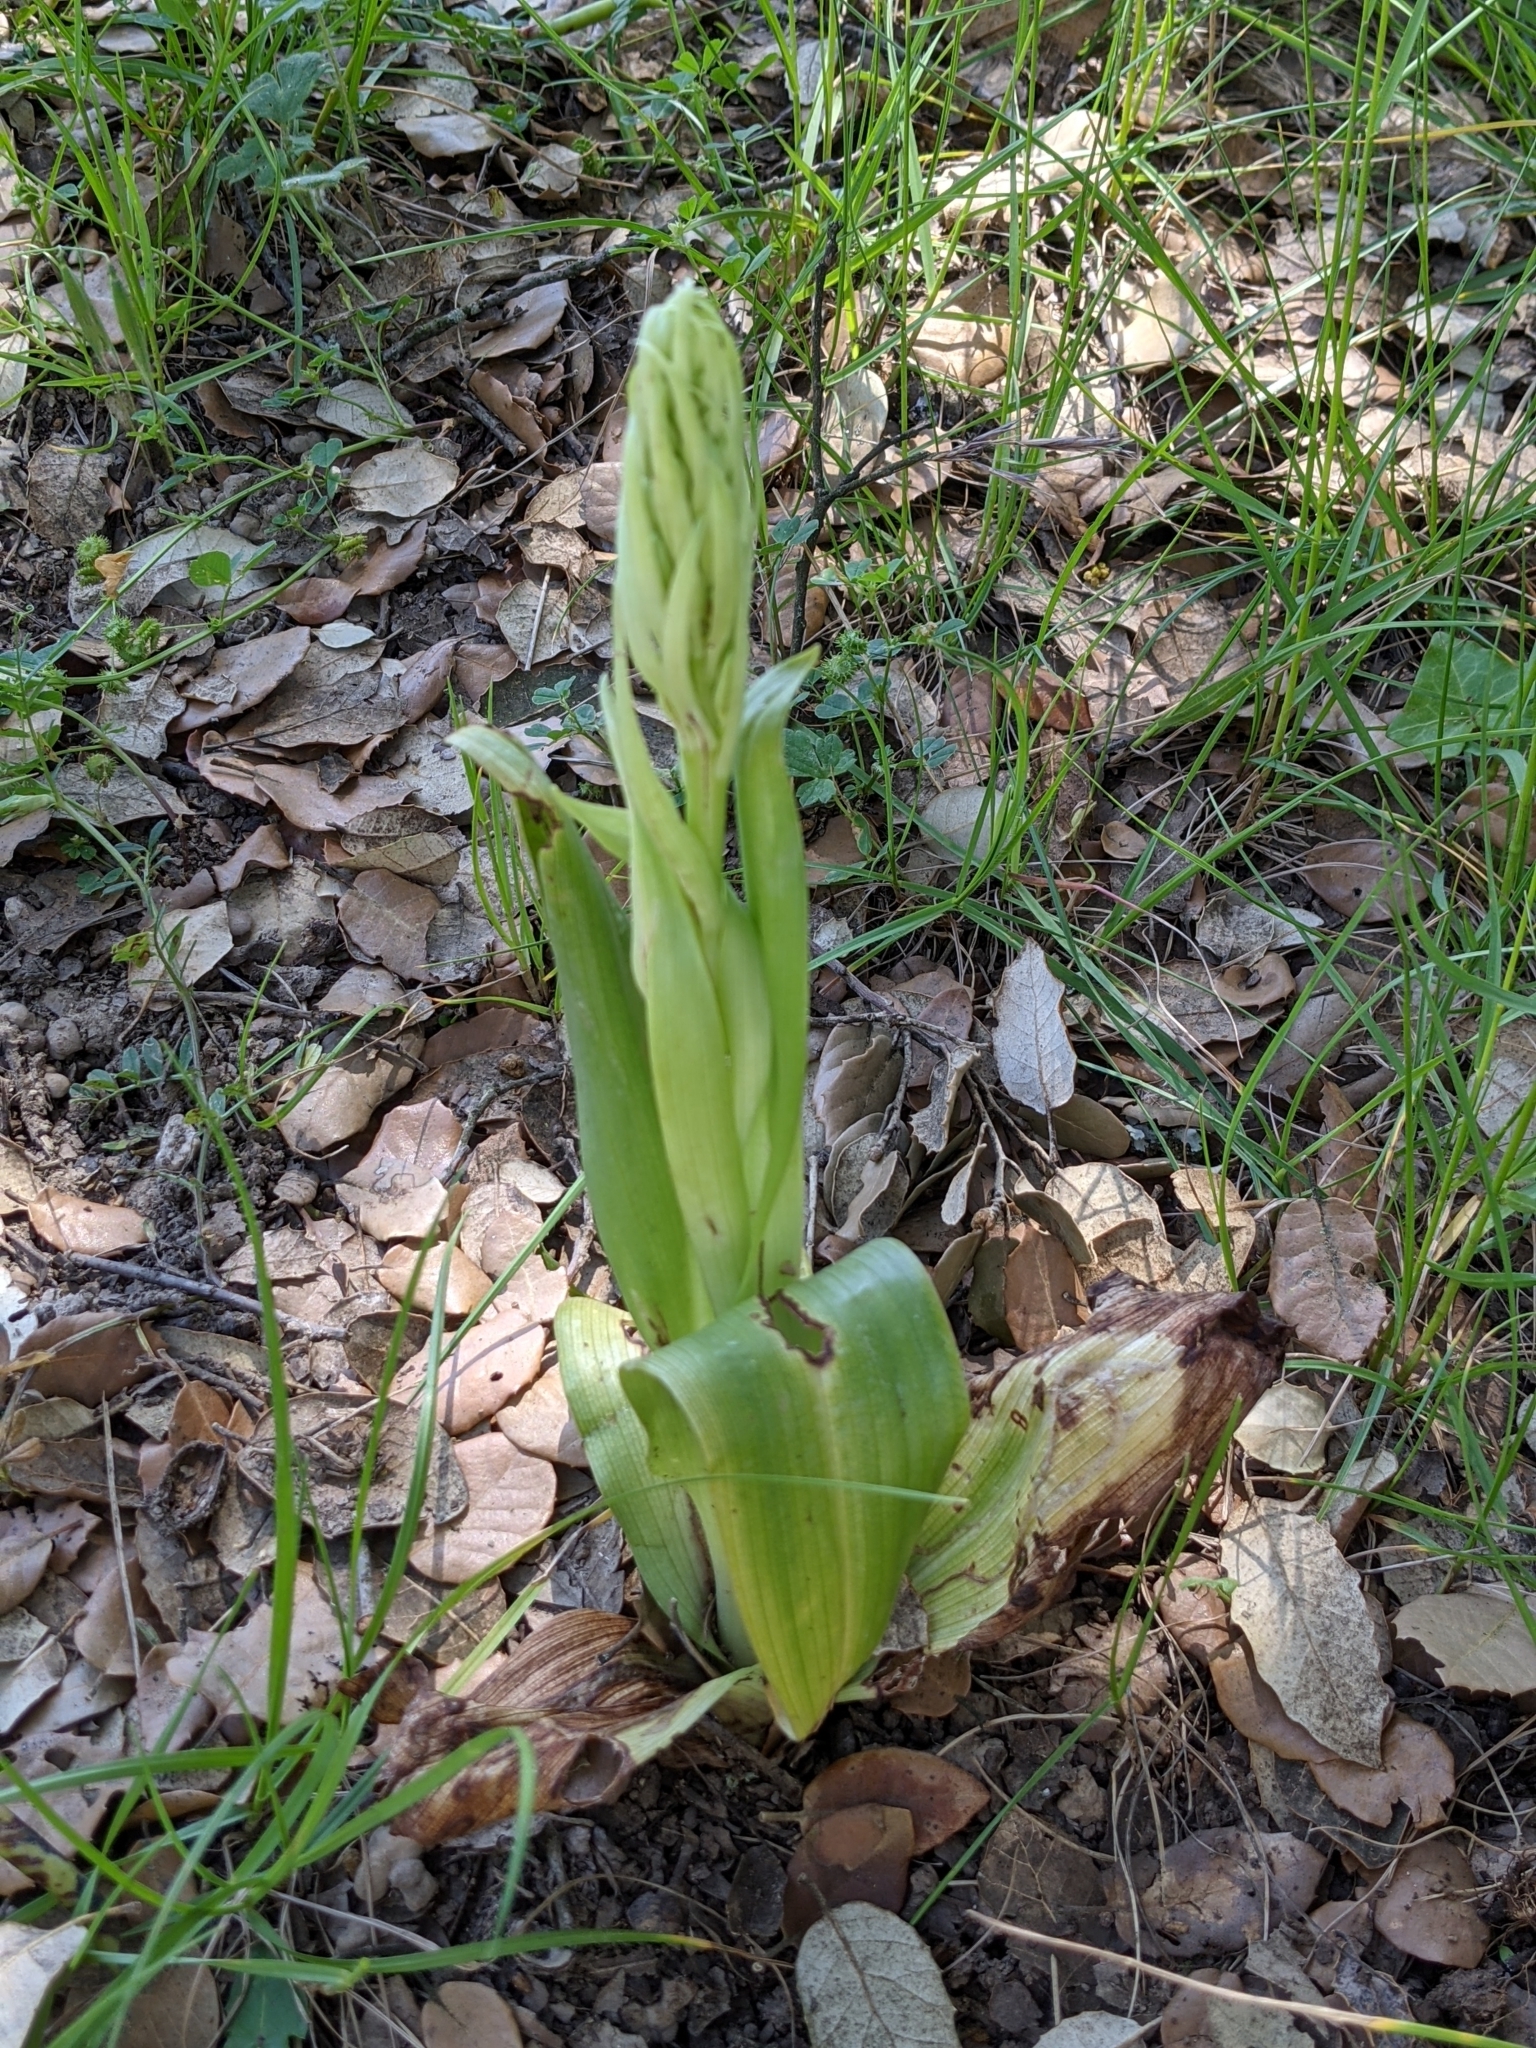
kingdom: Plantae
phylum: Tracheophyta
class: Liliopsida
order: Asparagales
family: Orchidaceae
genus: Himantoglossum
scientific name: Himantoglossum hircinum
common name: Lizard orchid
